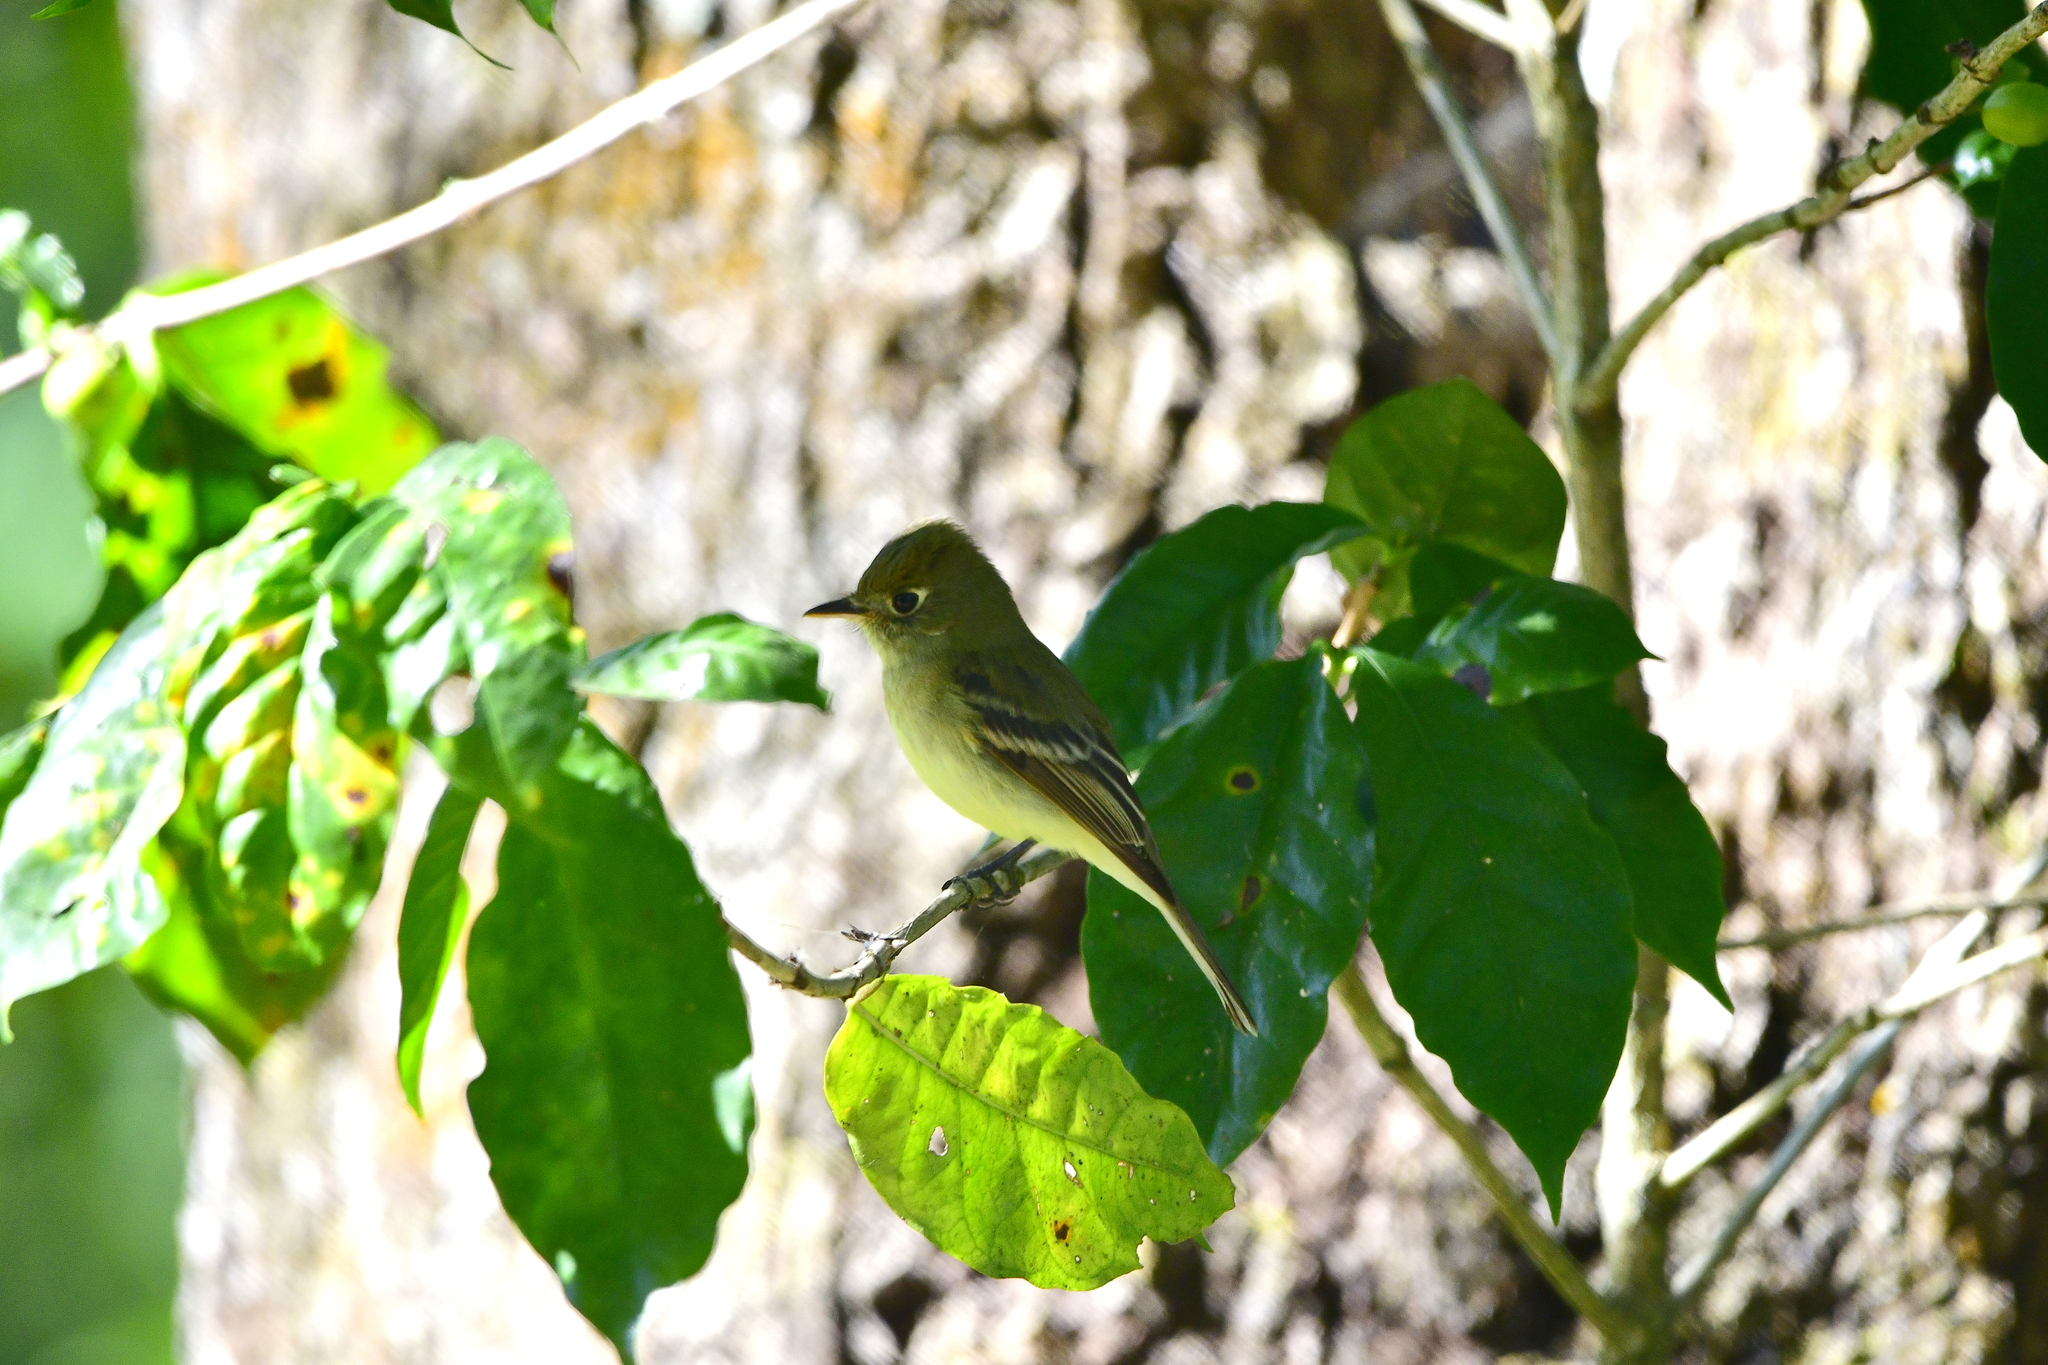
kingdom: Animalia
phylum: Chordata
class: Aves
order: Passeriformes
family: Tyrannidae
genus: Empidonax
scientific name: Empidonax difficilis
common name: Pacific-slope flycatcher
